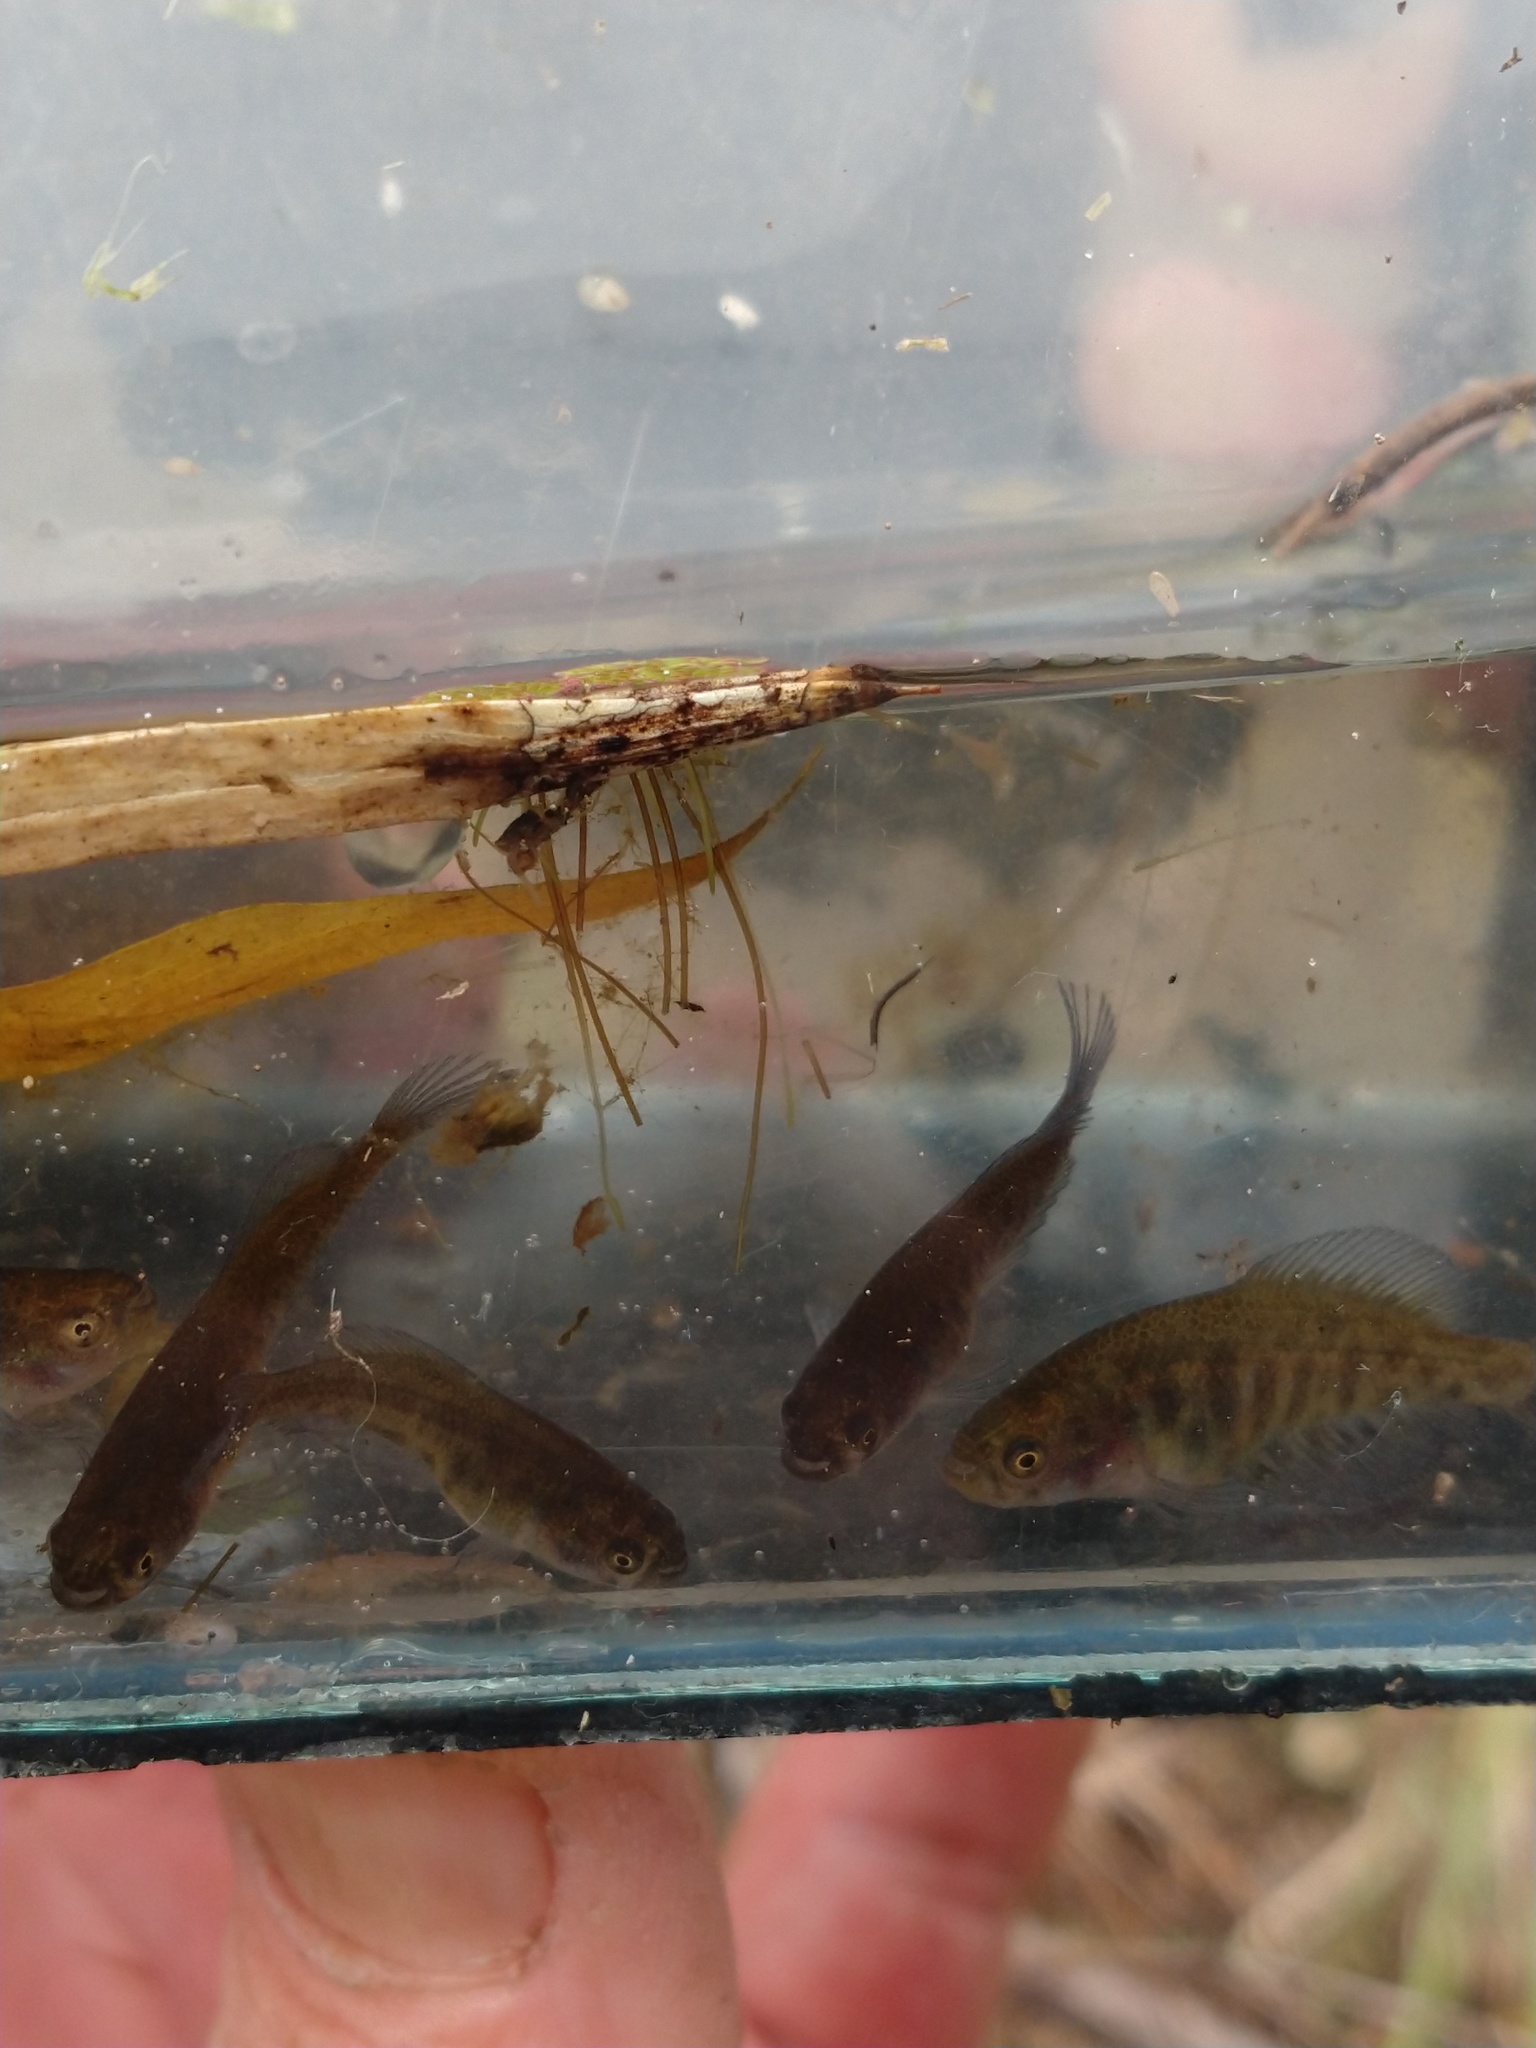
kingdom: Animalia
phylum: Chordata
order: Cyprinodontiformes
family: Rivulidae
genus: Austrolebias
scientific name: Austrolebias elongatus
